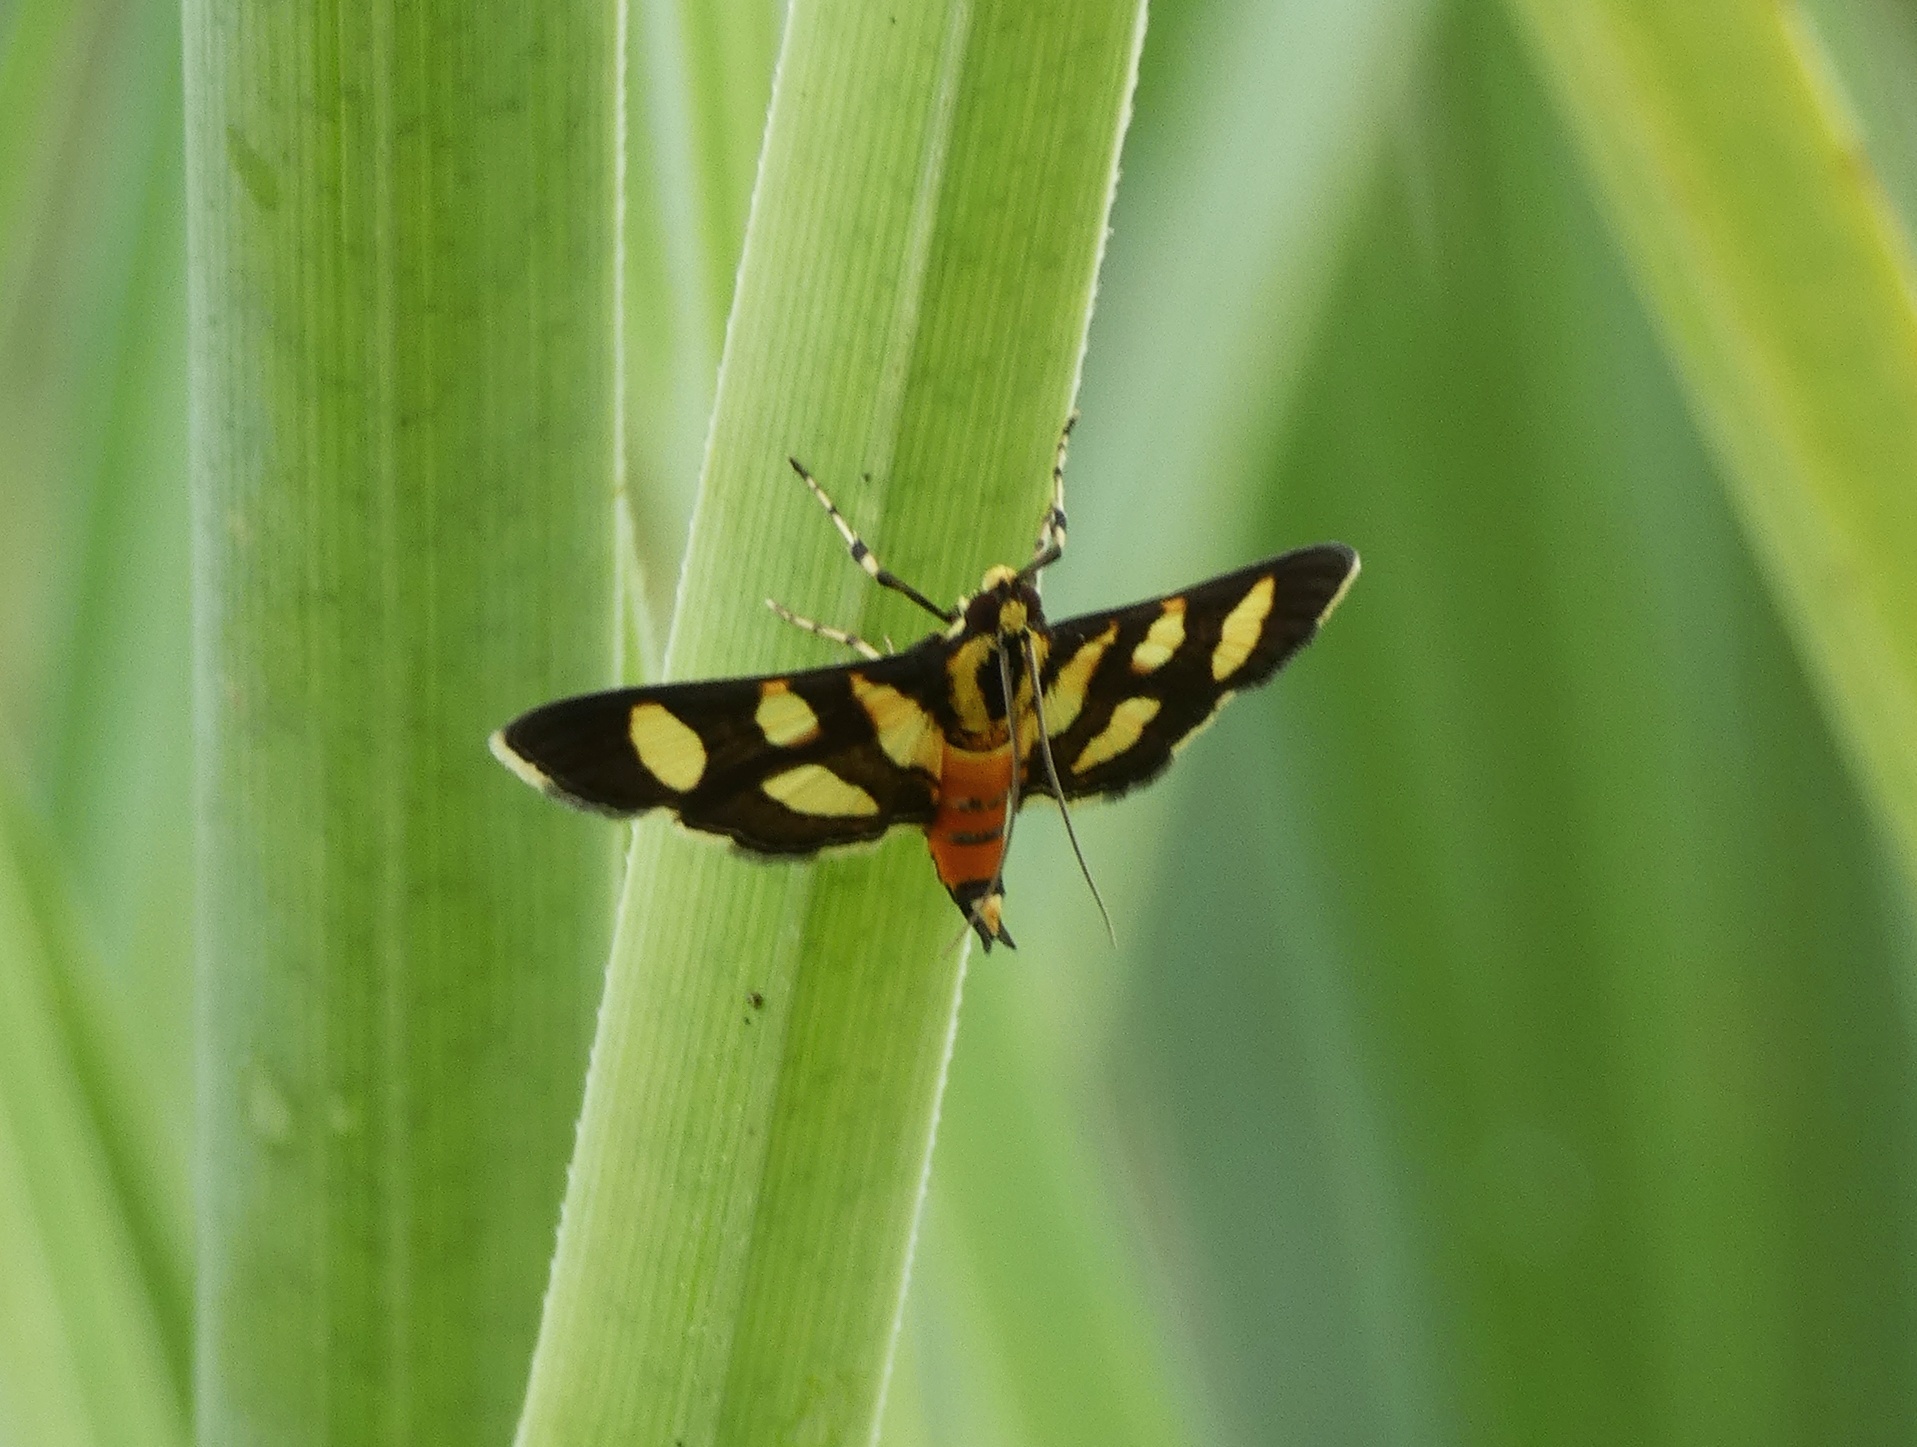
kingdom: Animalia
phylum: Arthropoda
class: Insecta
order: Lepidoptera
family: Crambidae
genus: Syngamia
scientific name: Syngamia florella
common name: Orange-spotted flower moth
